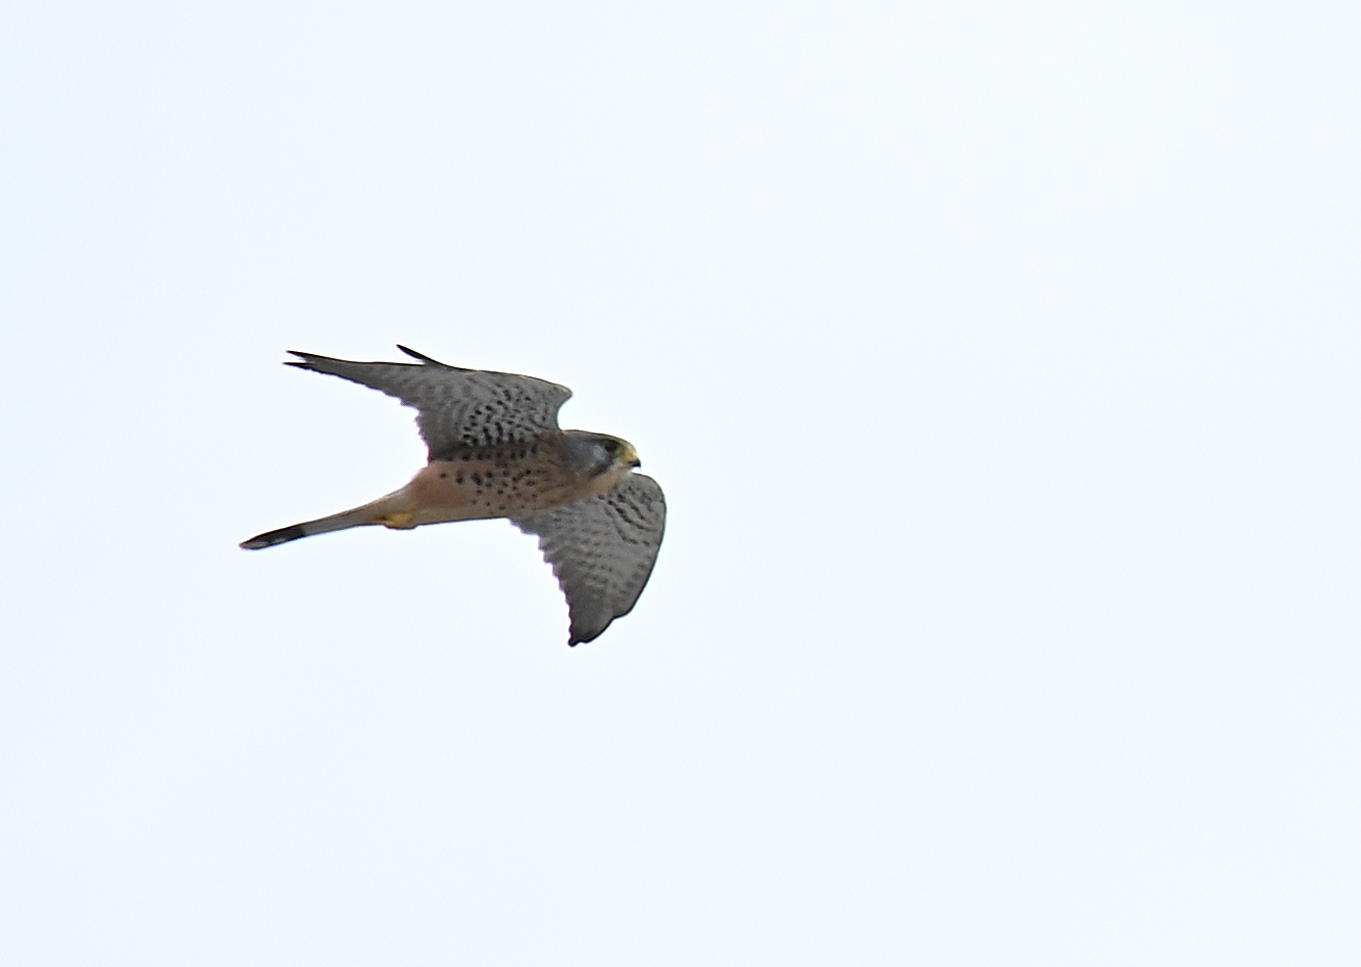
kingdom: Animalia
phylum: Chordata
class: Aves
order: Falconiformes
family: Falconidae
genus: Falco
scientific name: Falco tinnunculus
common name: Common kestrel
